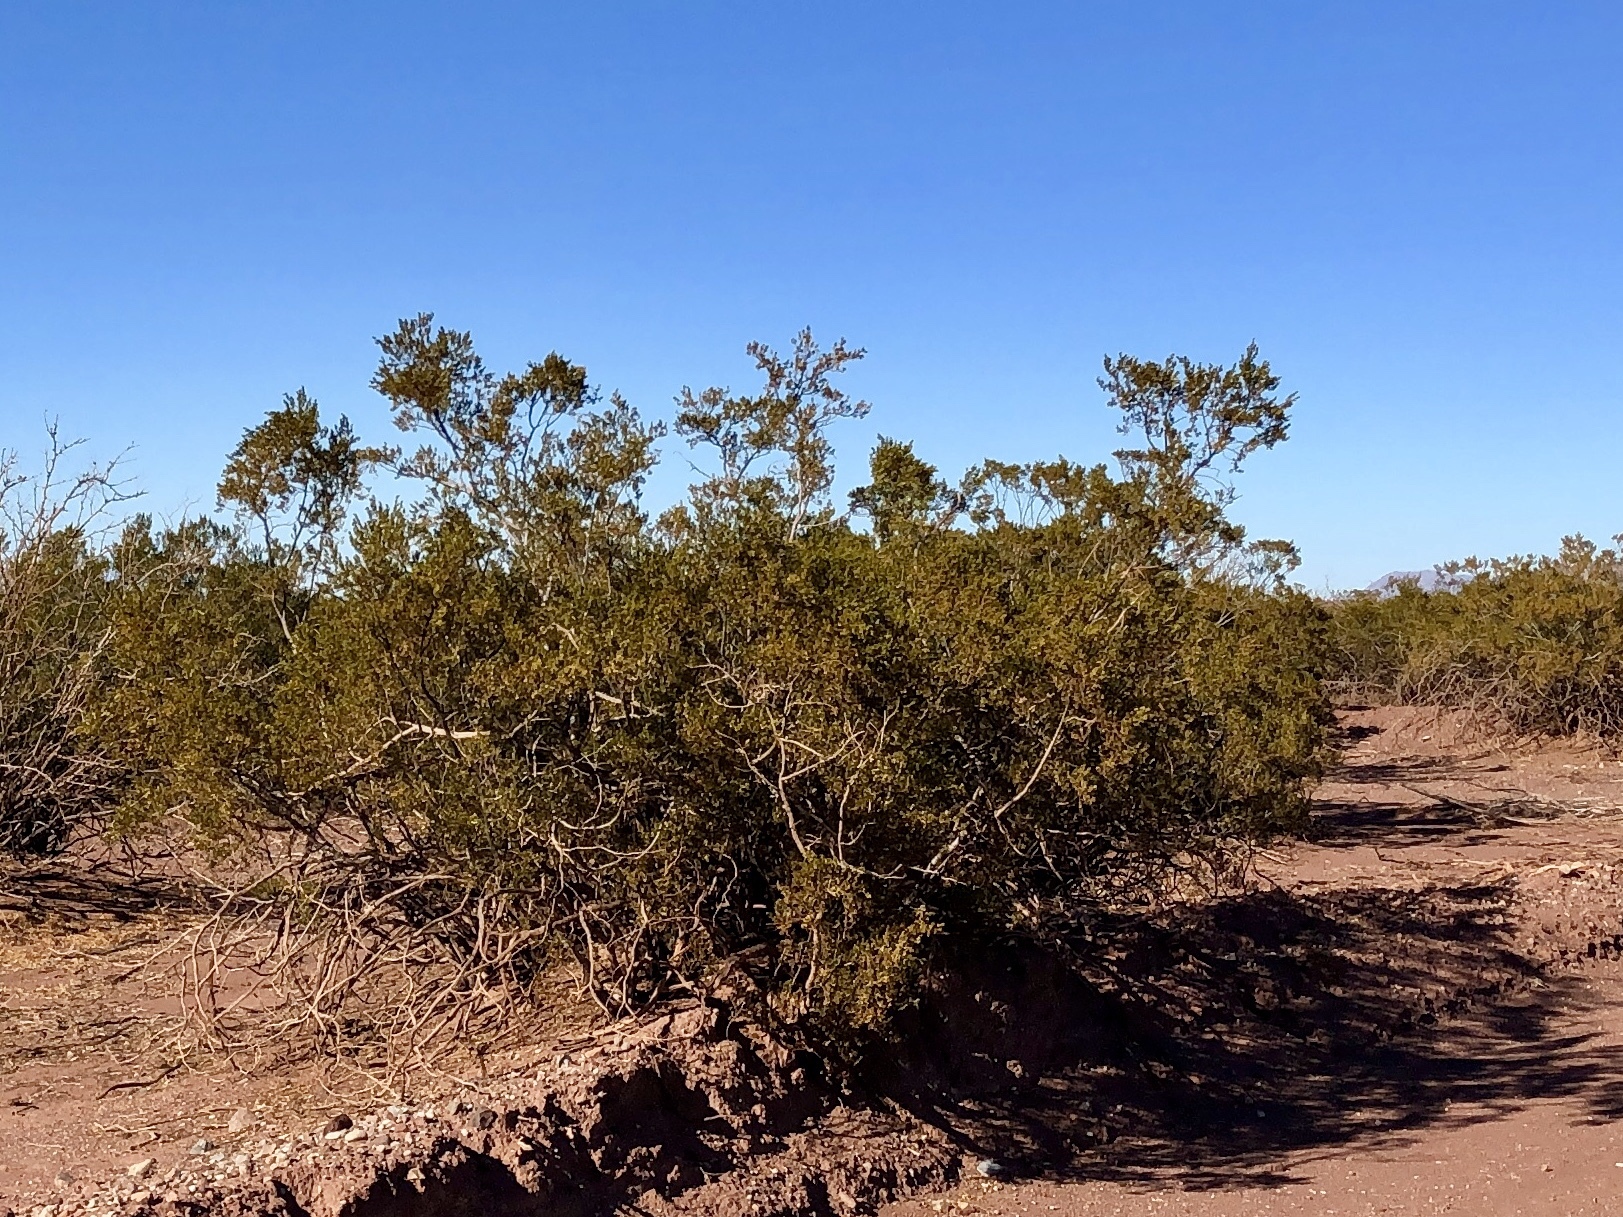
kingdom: Plantae
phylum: Tracheophyta
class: Magnoliopsida
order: Zygophyllales
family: Zygophyllaceae
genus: Larrea
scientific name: Larrea tridentata
